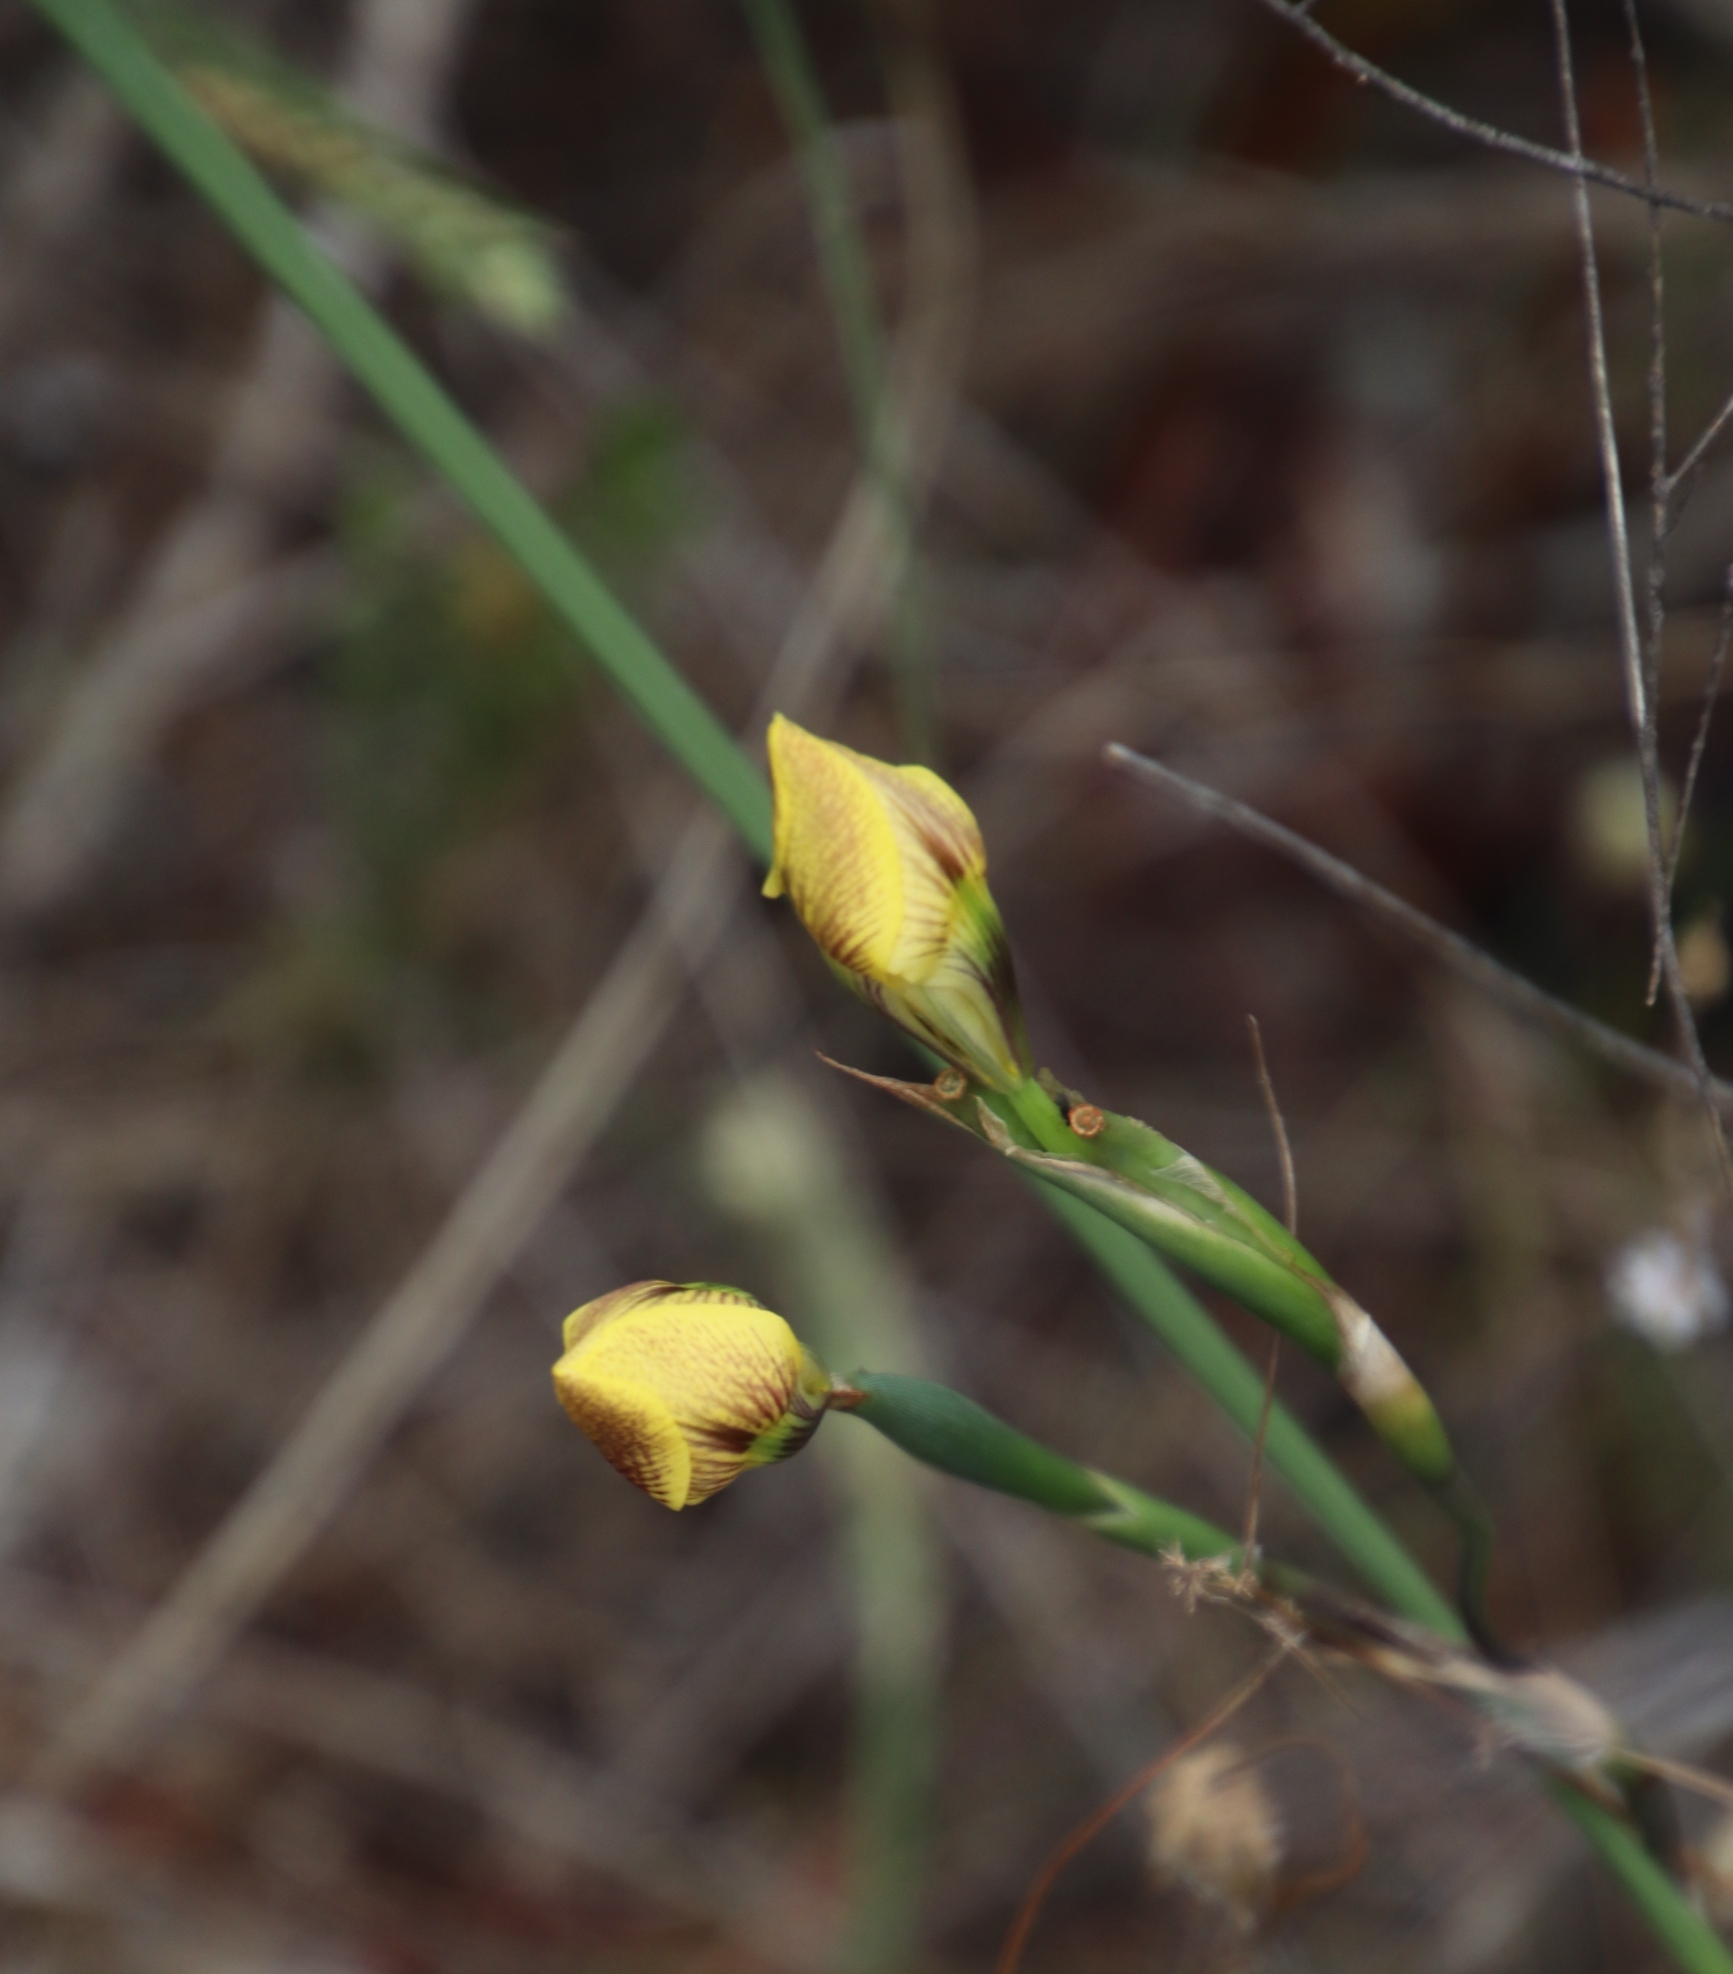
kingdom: Plantae
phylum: Tracheophyta
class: Liliopsida
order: Asparagales
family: Iridaceae
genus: Moraea
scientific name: Moraea fugax
